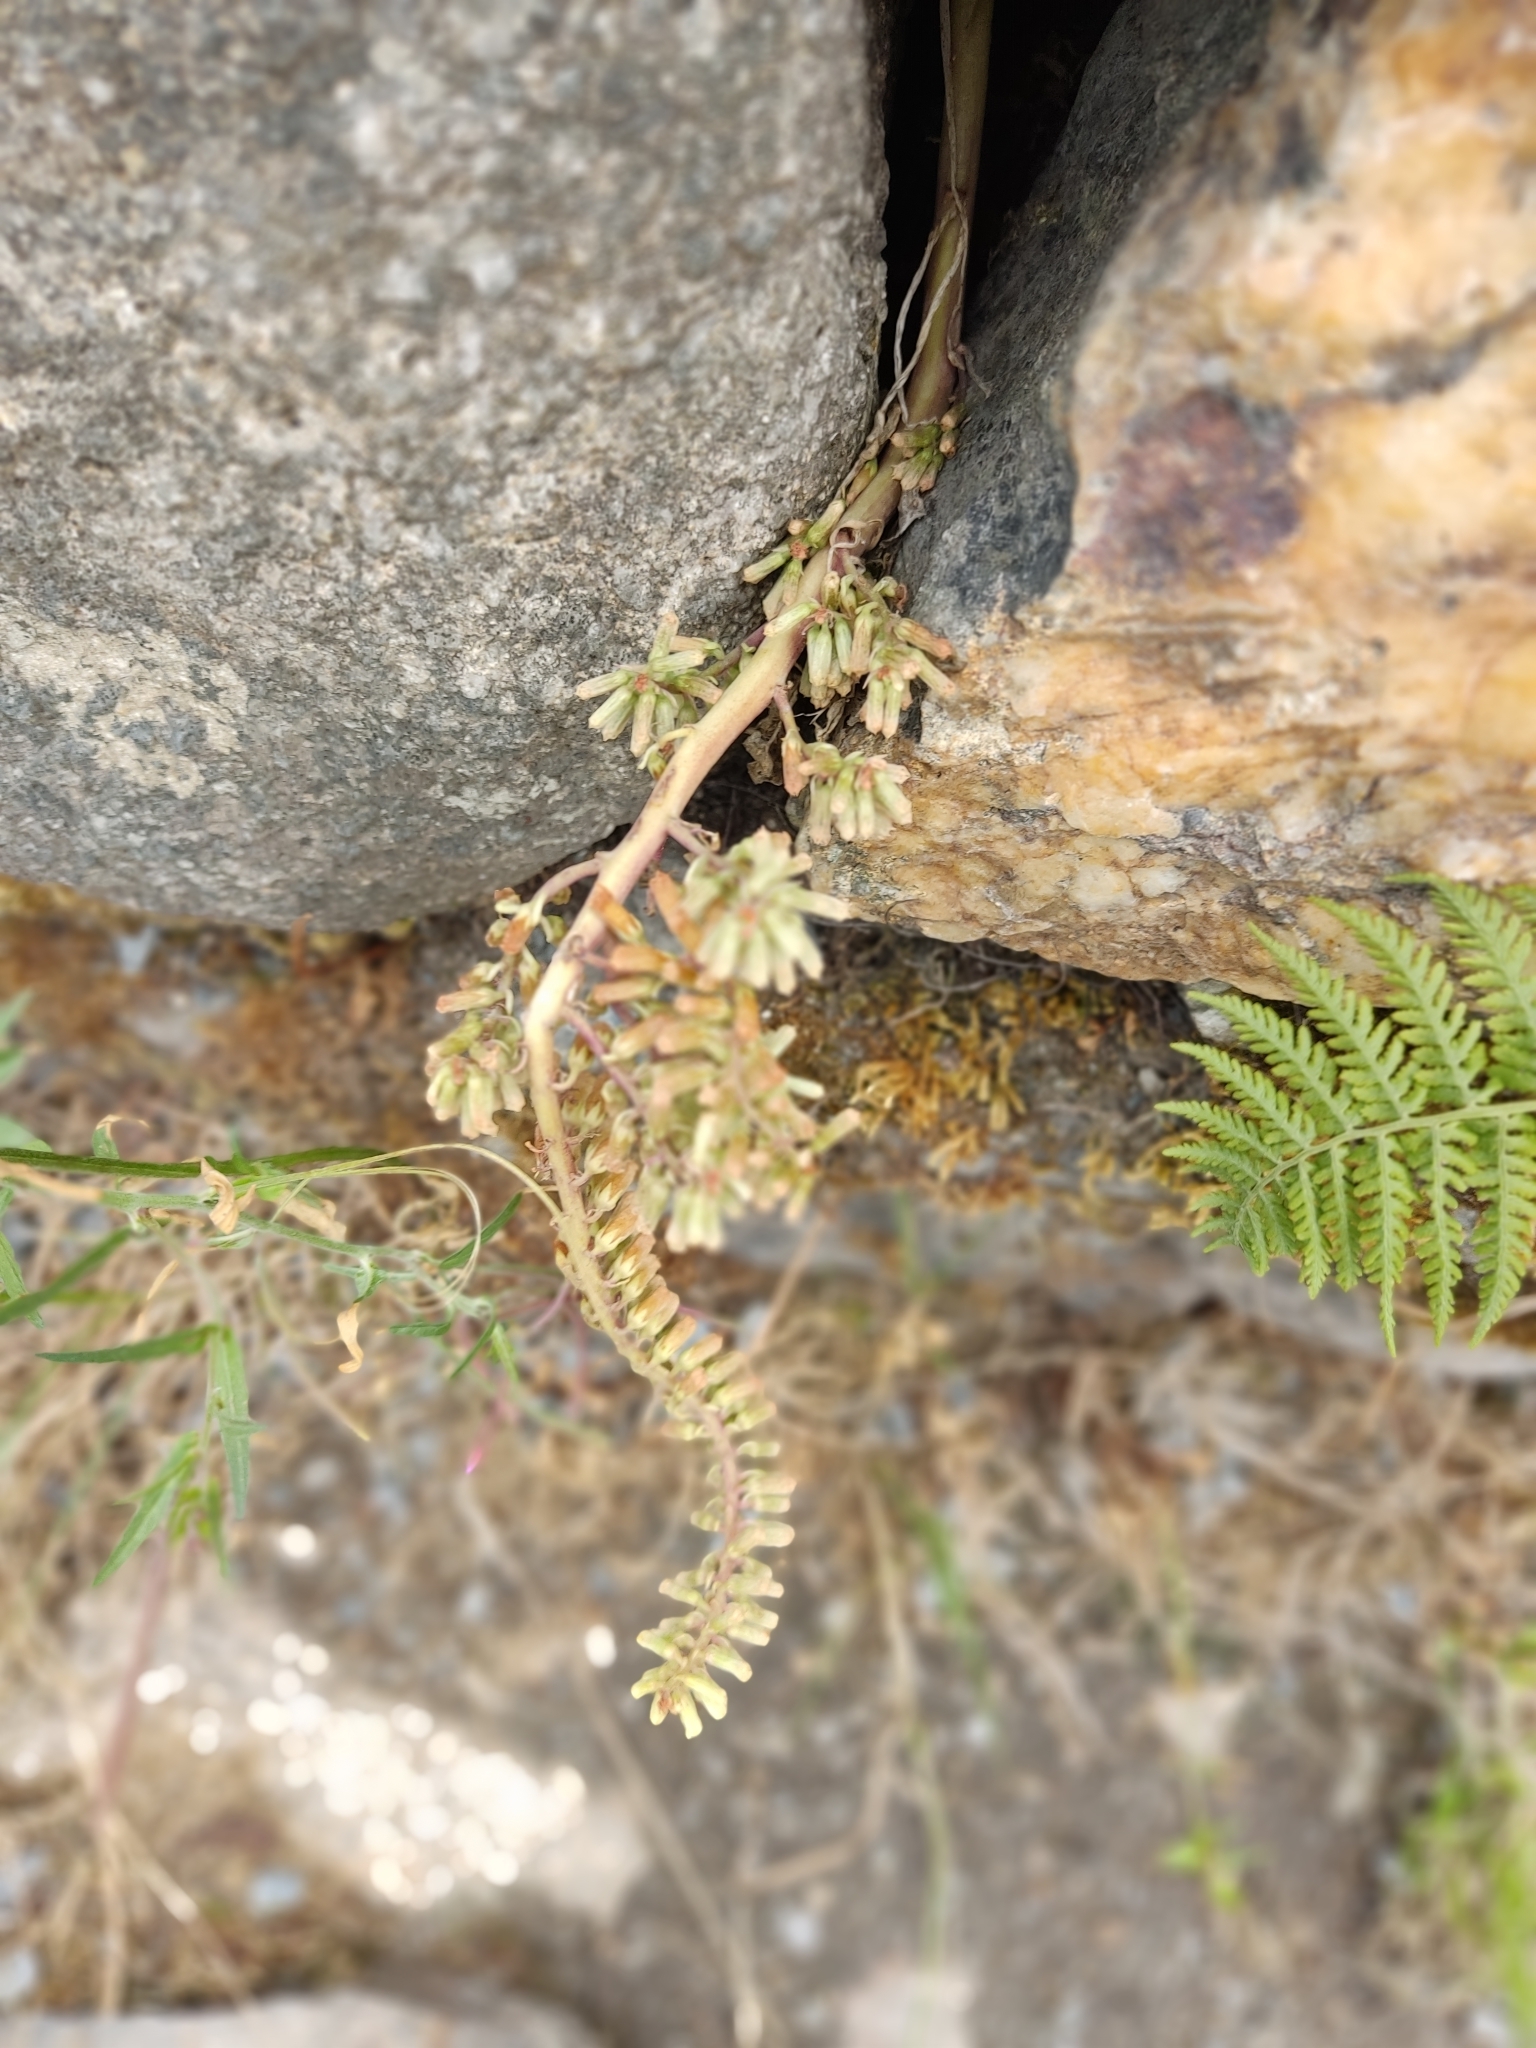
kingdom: Plantae
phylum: Tracheophyta
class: Magnoliopsida
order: Saxifragales
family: Crassulaceae
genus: Umbilicus
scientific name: Umbilicus rupestris
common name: Navelwort
